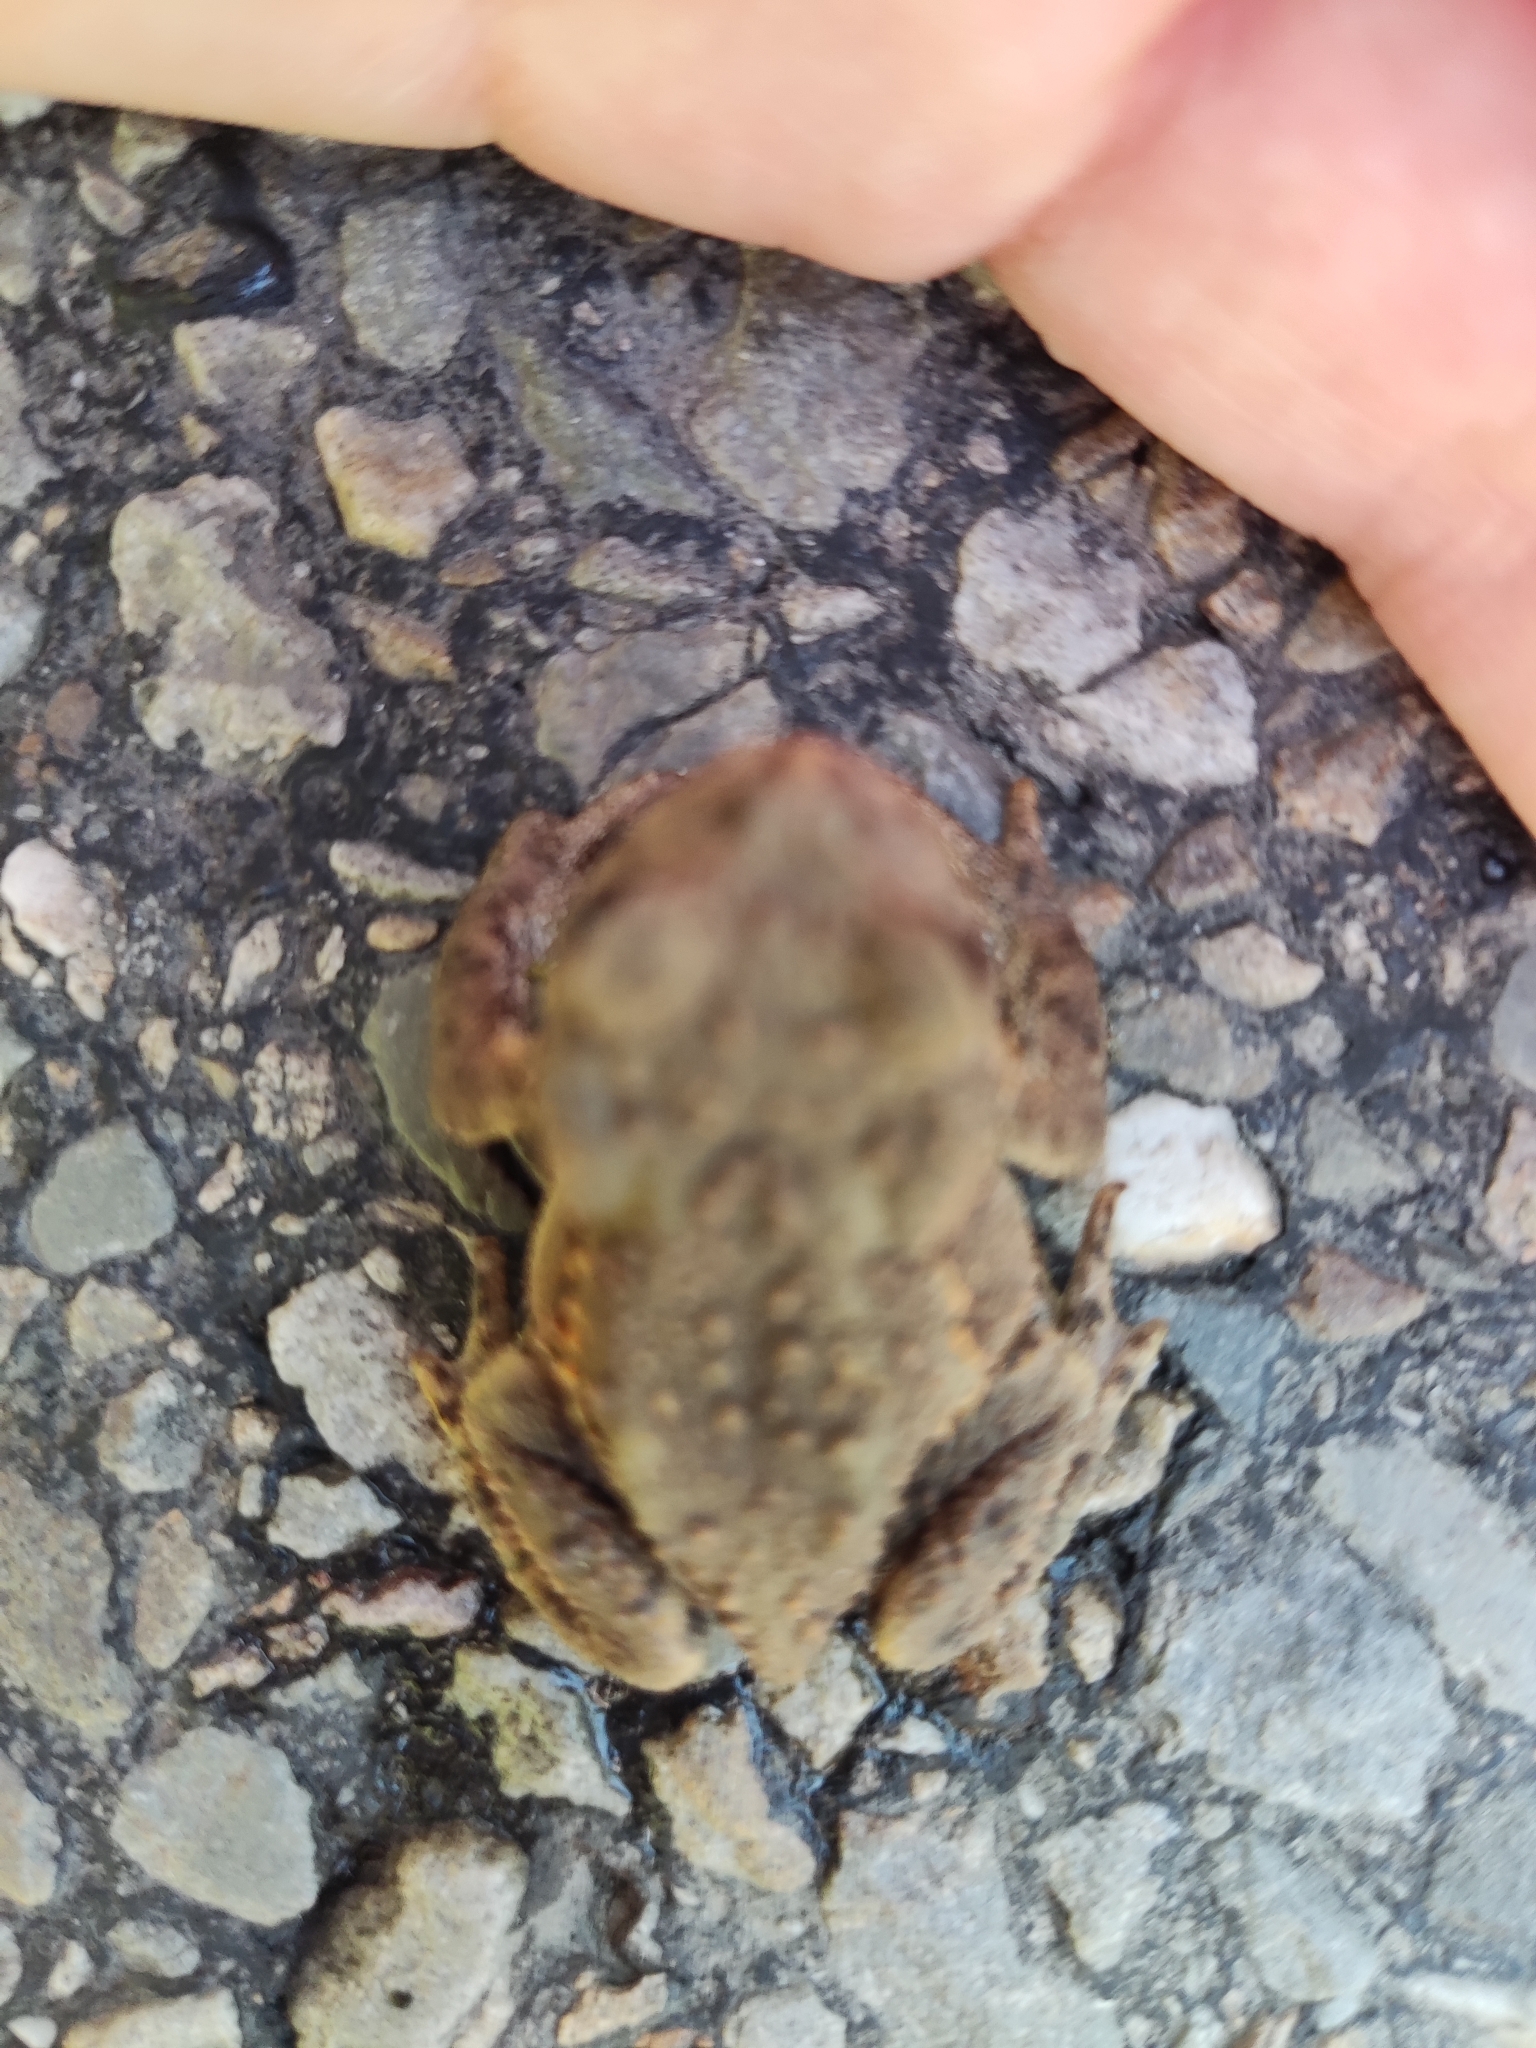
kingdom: Animalia
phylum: Chordata
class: Amphibia
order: Anura
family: Bufonidae
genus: Bufo
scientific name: Bufo bufo
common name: Common toad
